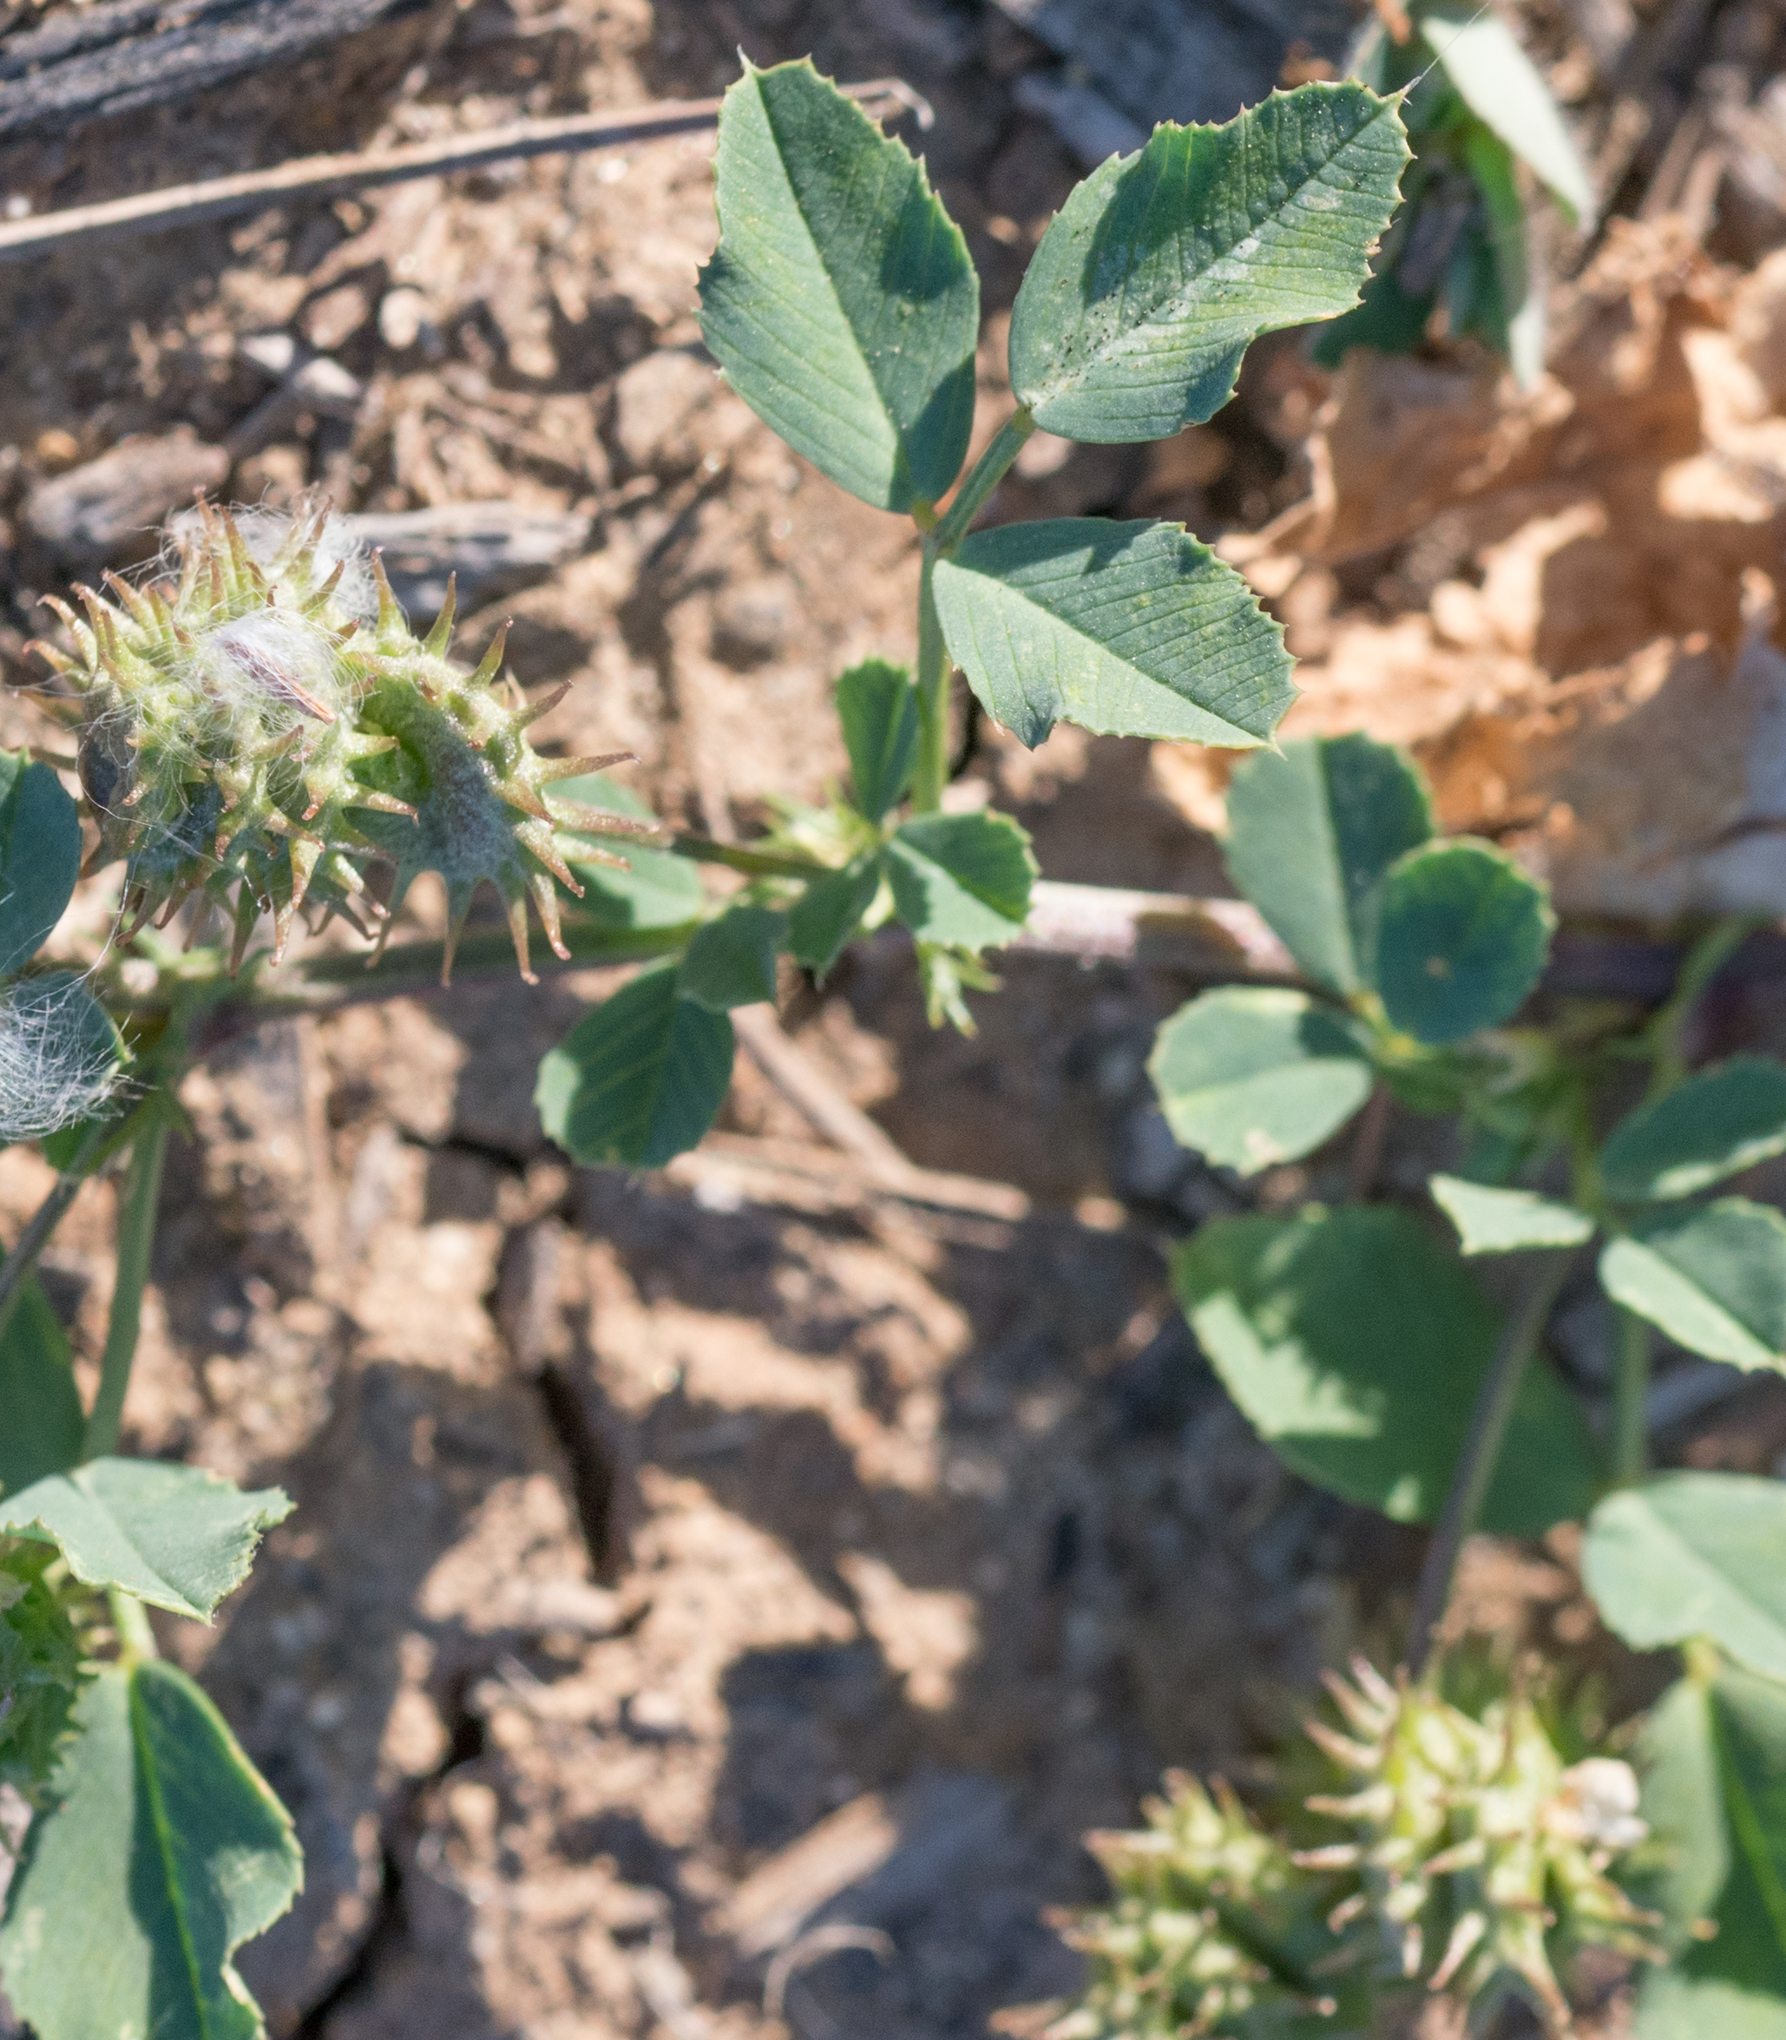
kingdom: Plantae
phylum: Tracheophyta
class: Magnoliopsida
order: Fabales
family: Fabaceae
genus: Medicago
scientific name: Medicago polymorpha
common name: Burclover
